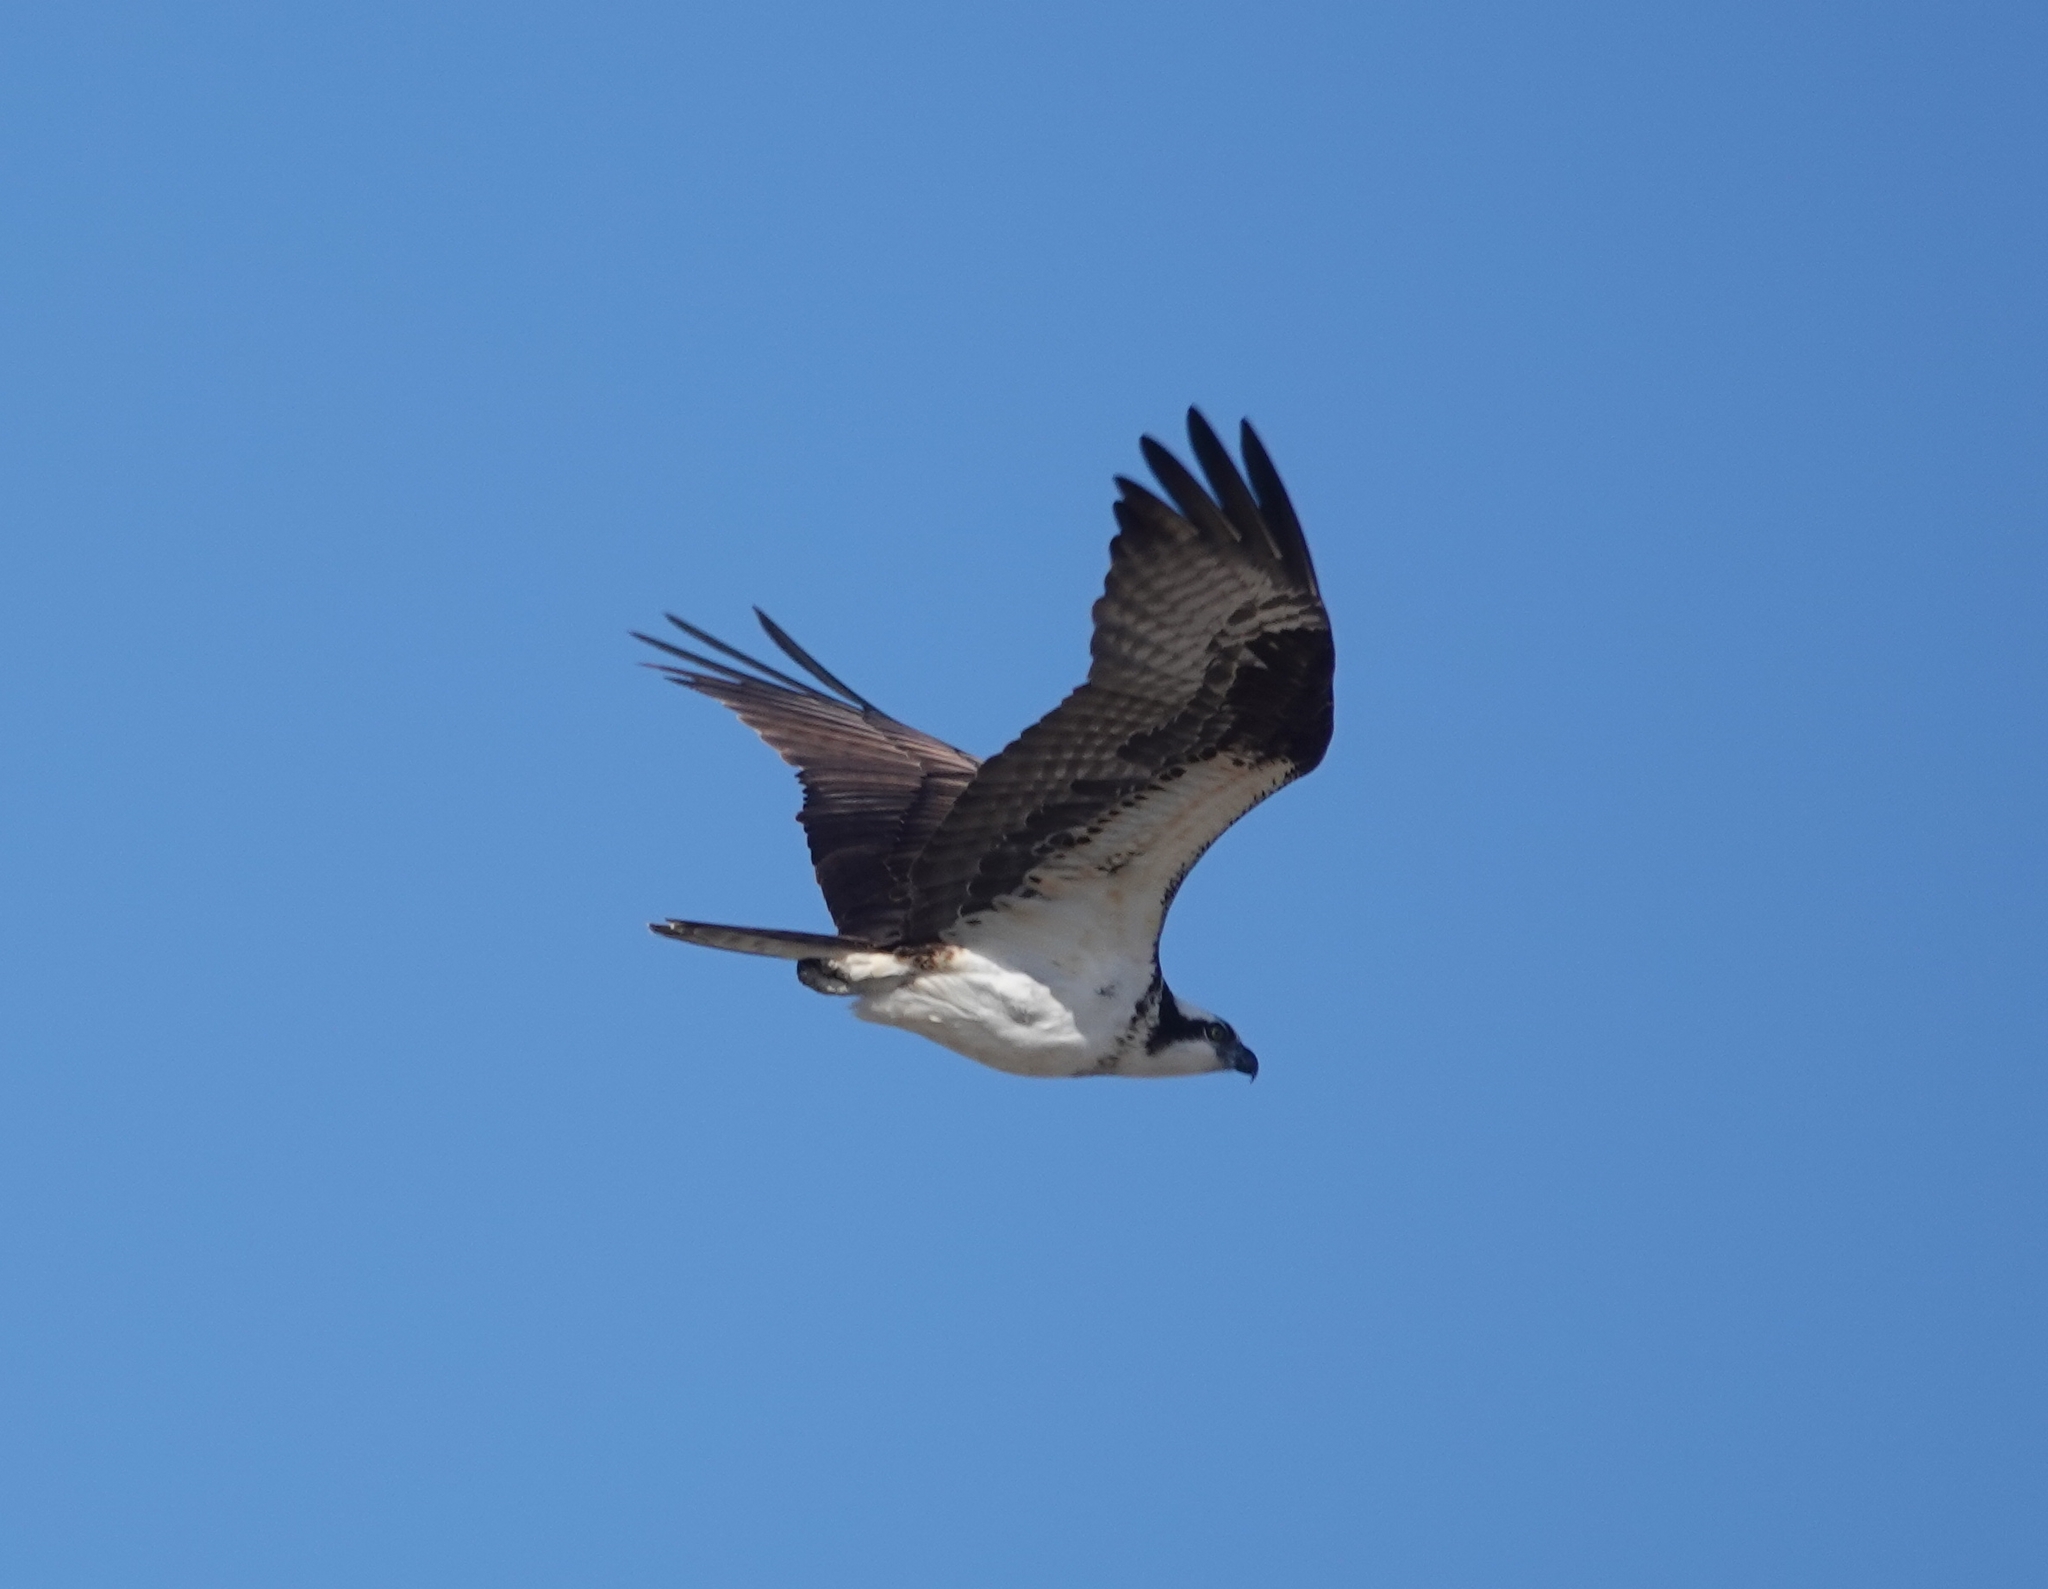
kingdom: Animalia
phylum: Chordata
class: Aves
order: Accipitriformes
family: Pandionidae
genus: Pandion
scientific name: Pandion haliaetus
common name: Osprey
